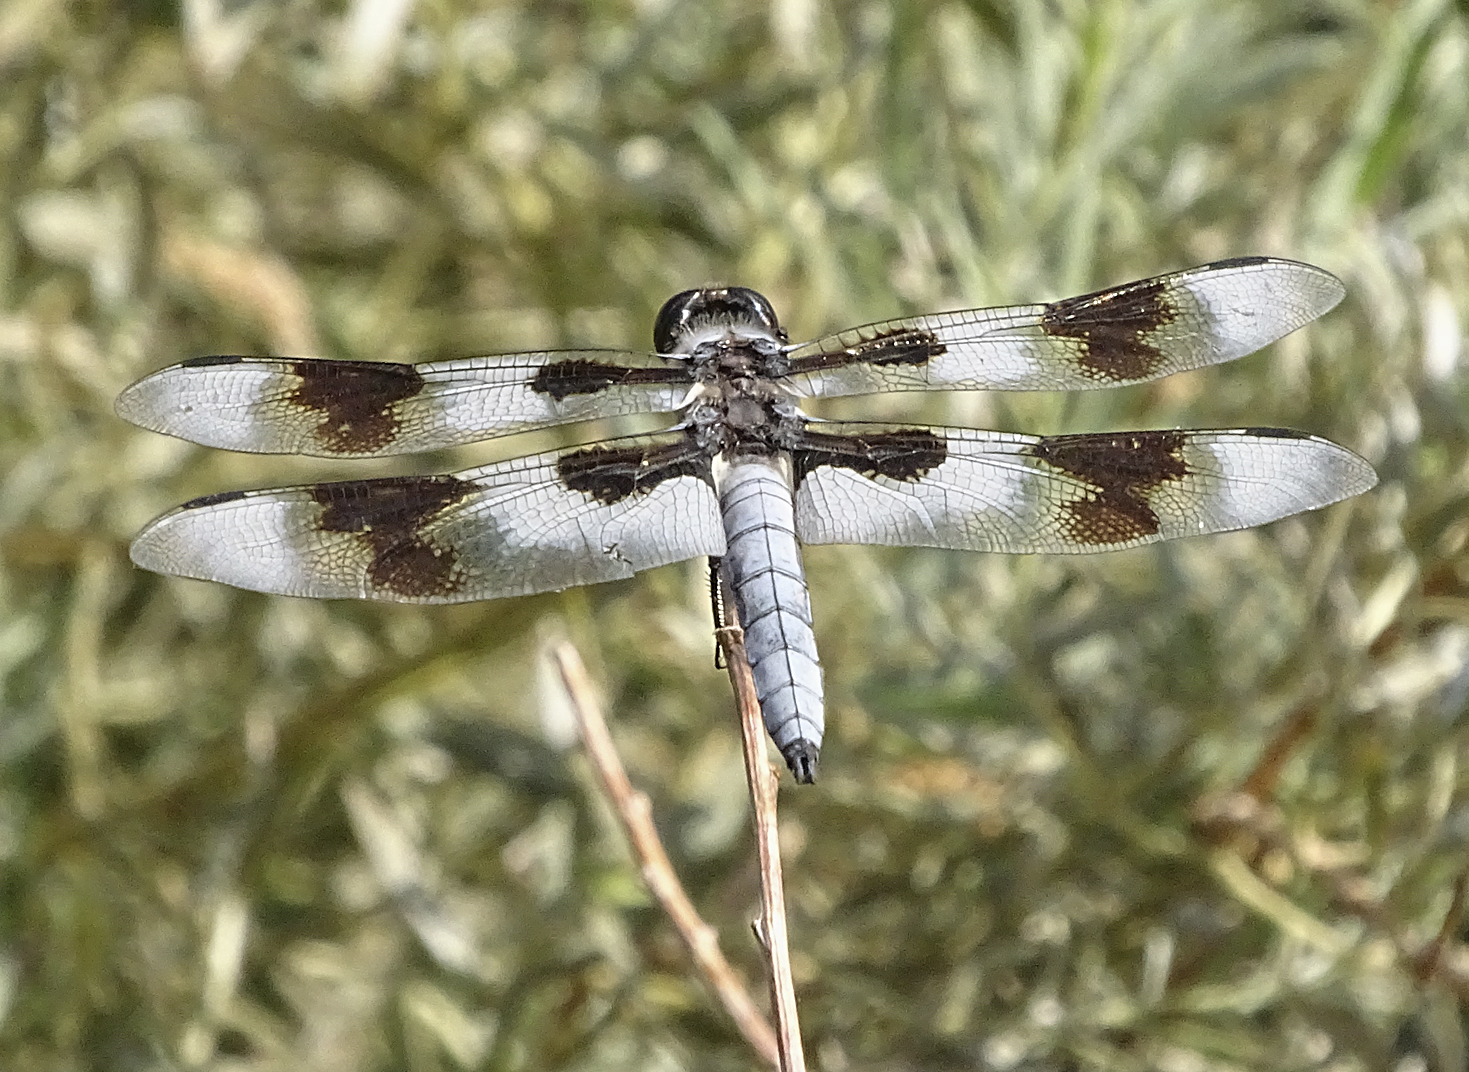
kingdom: Animalia
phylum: Arthropoda
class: Insecta
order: Odonata
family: Libellulidae
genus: Libellula
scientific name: Libellula forensis
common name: Eight-spotted skimmer
